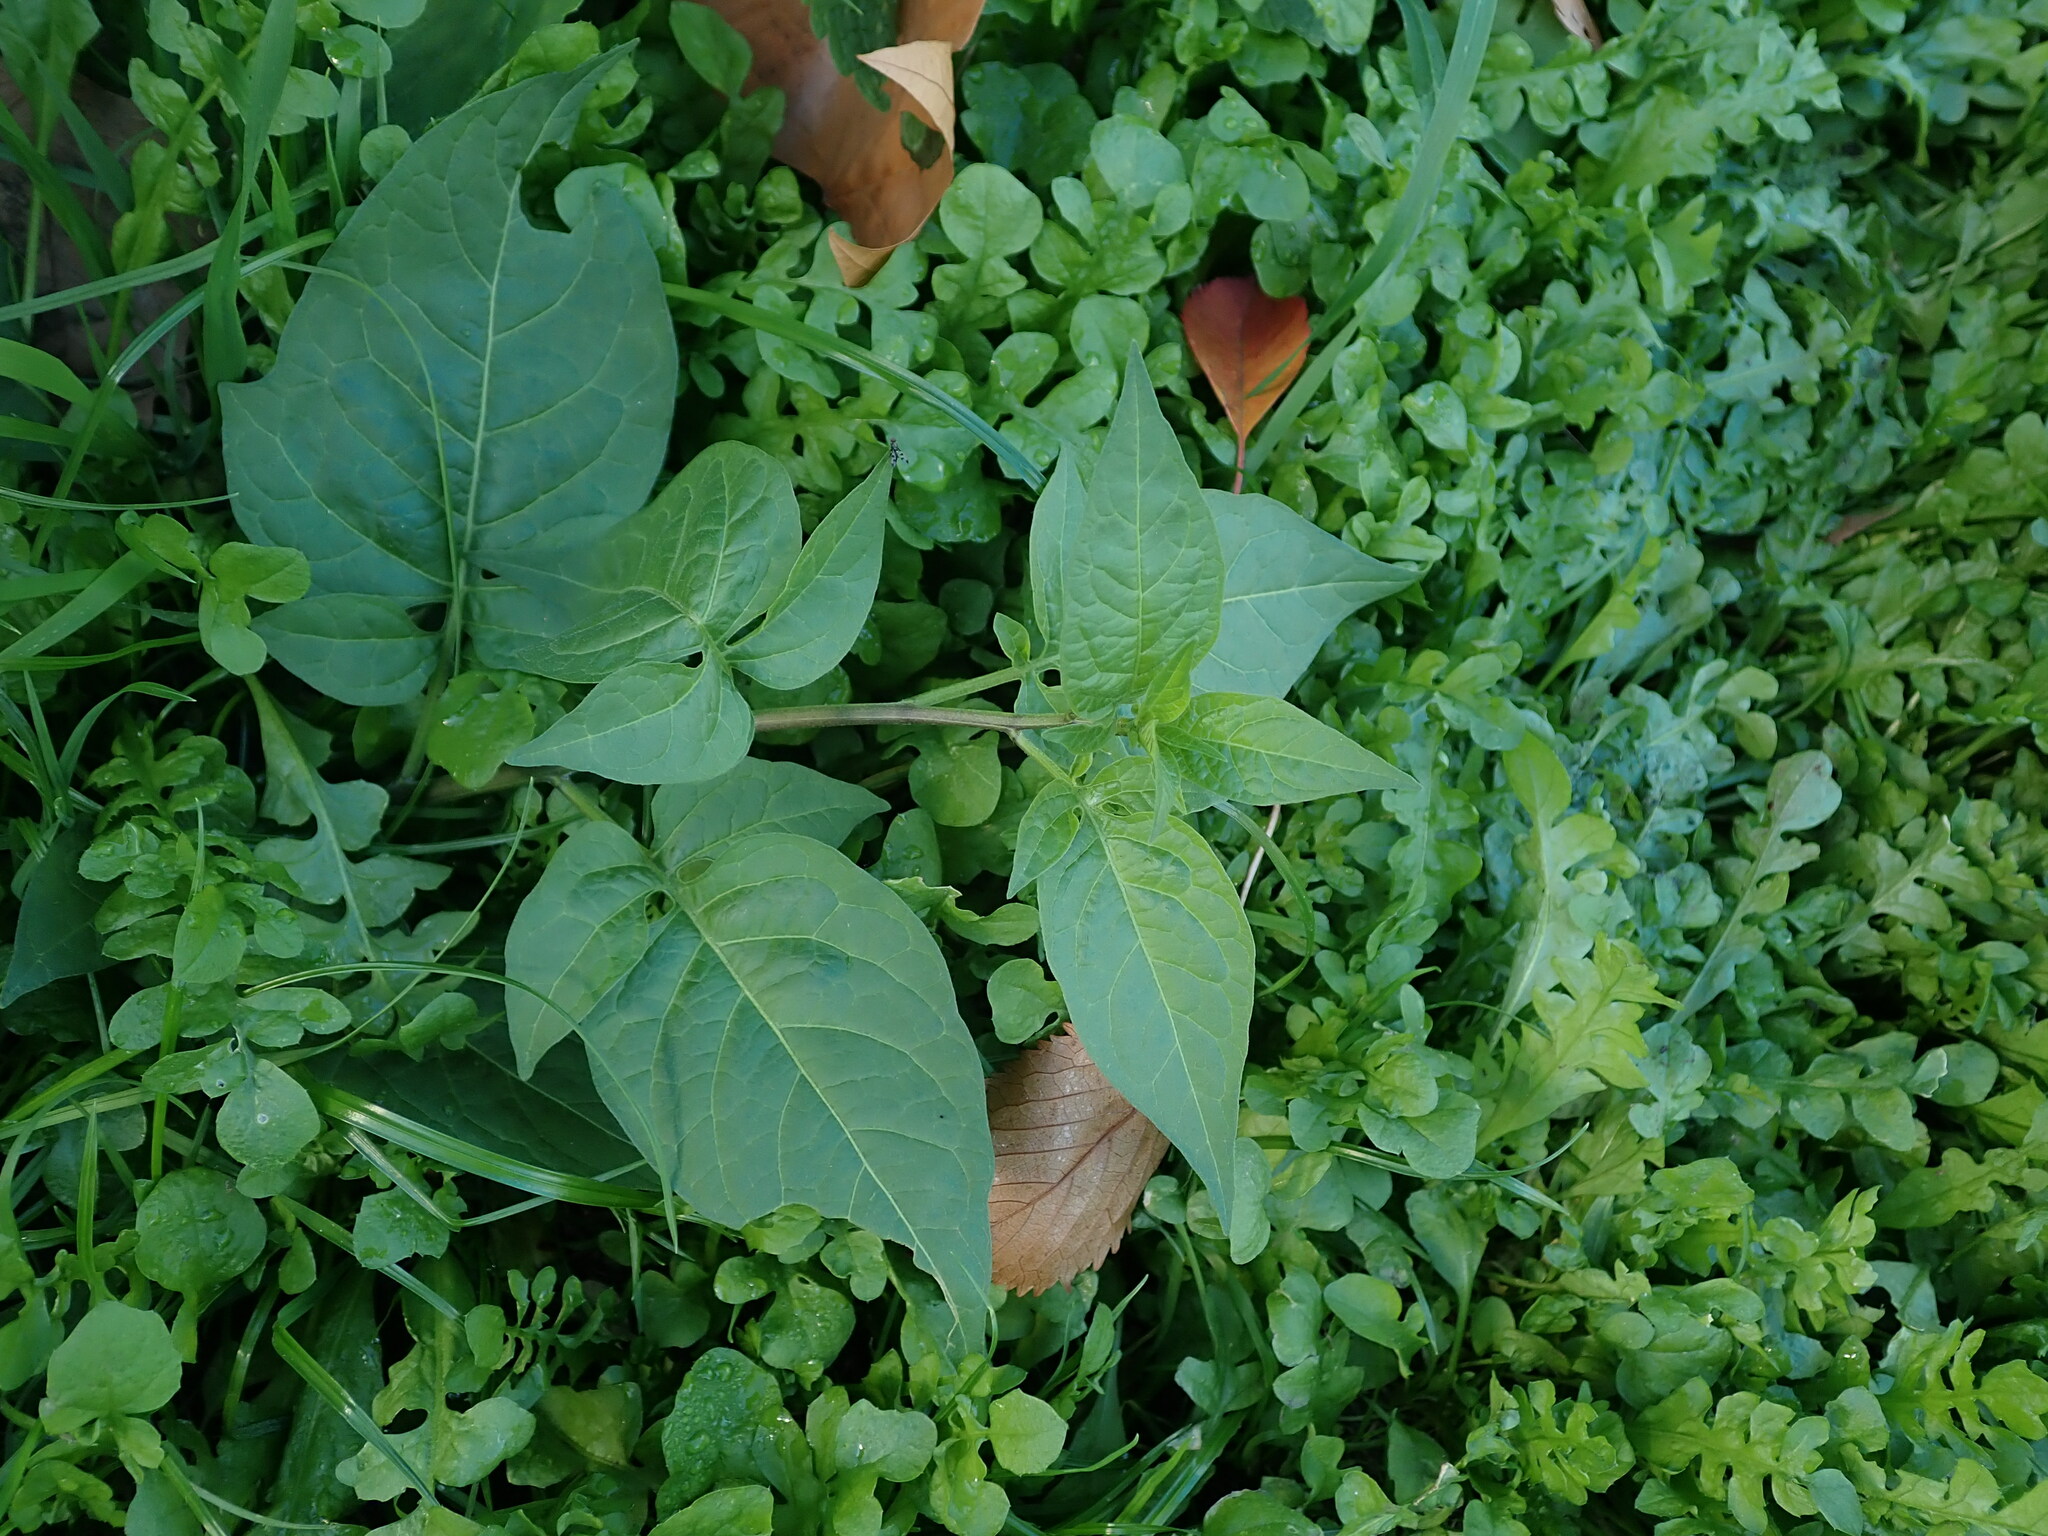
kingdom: Plantae
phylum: Tracheophyta
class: Magnoliopsida
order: Solanales
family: Solanaceae
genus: Solanum
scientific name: Solanum dulcamara
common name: Climbing nightshade
